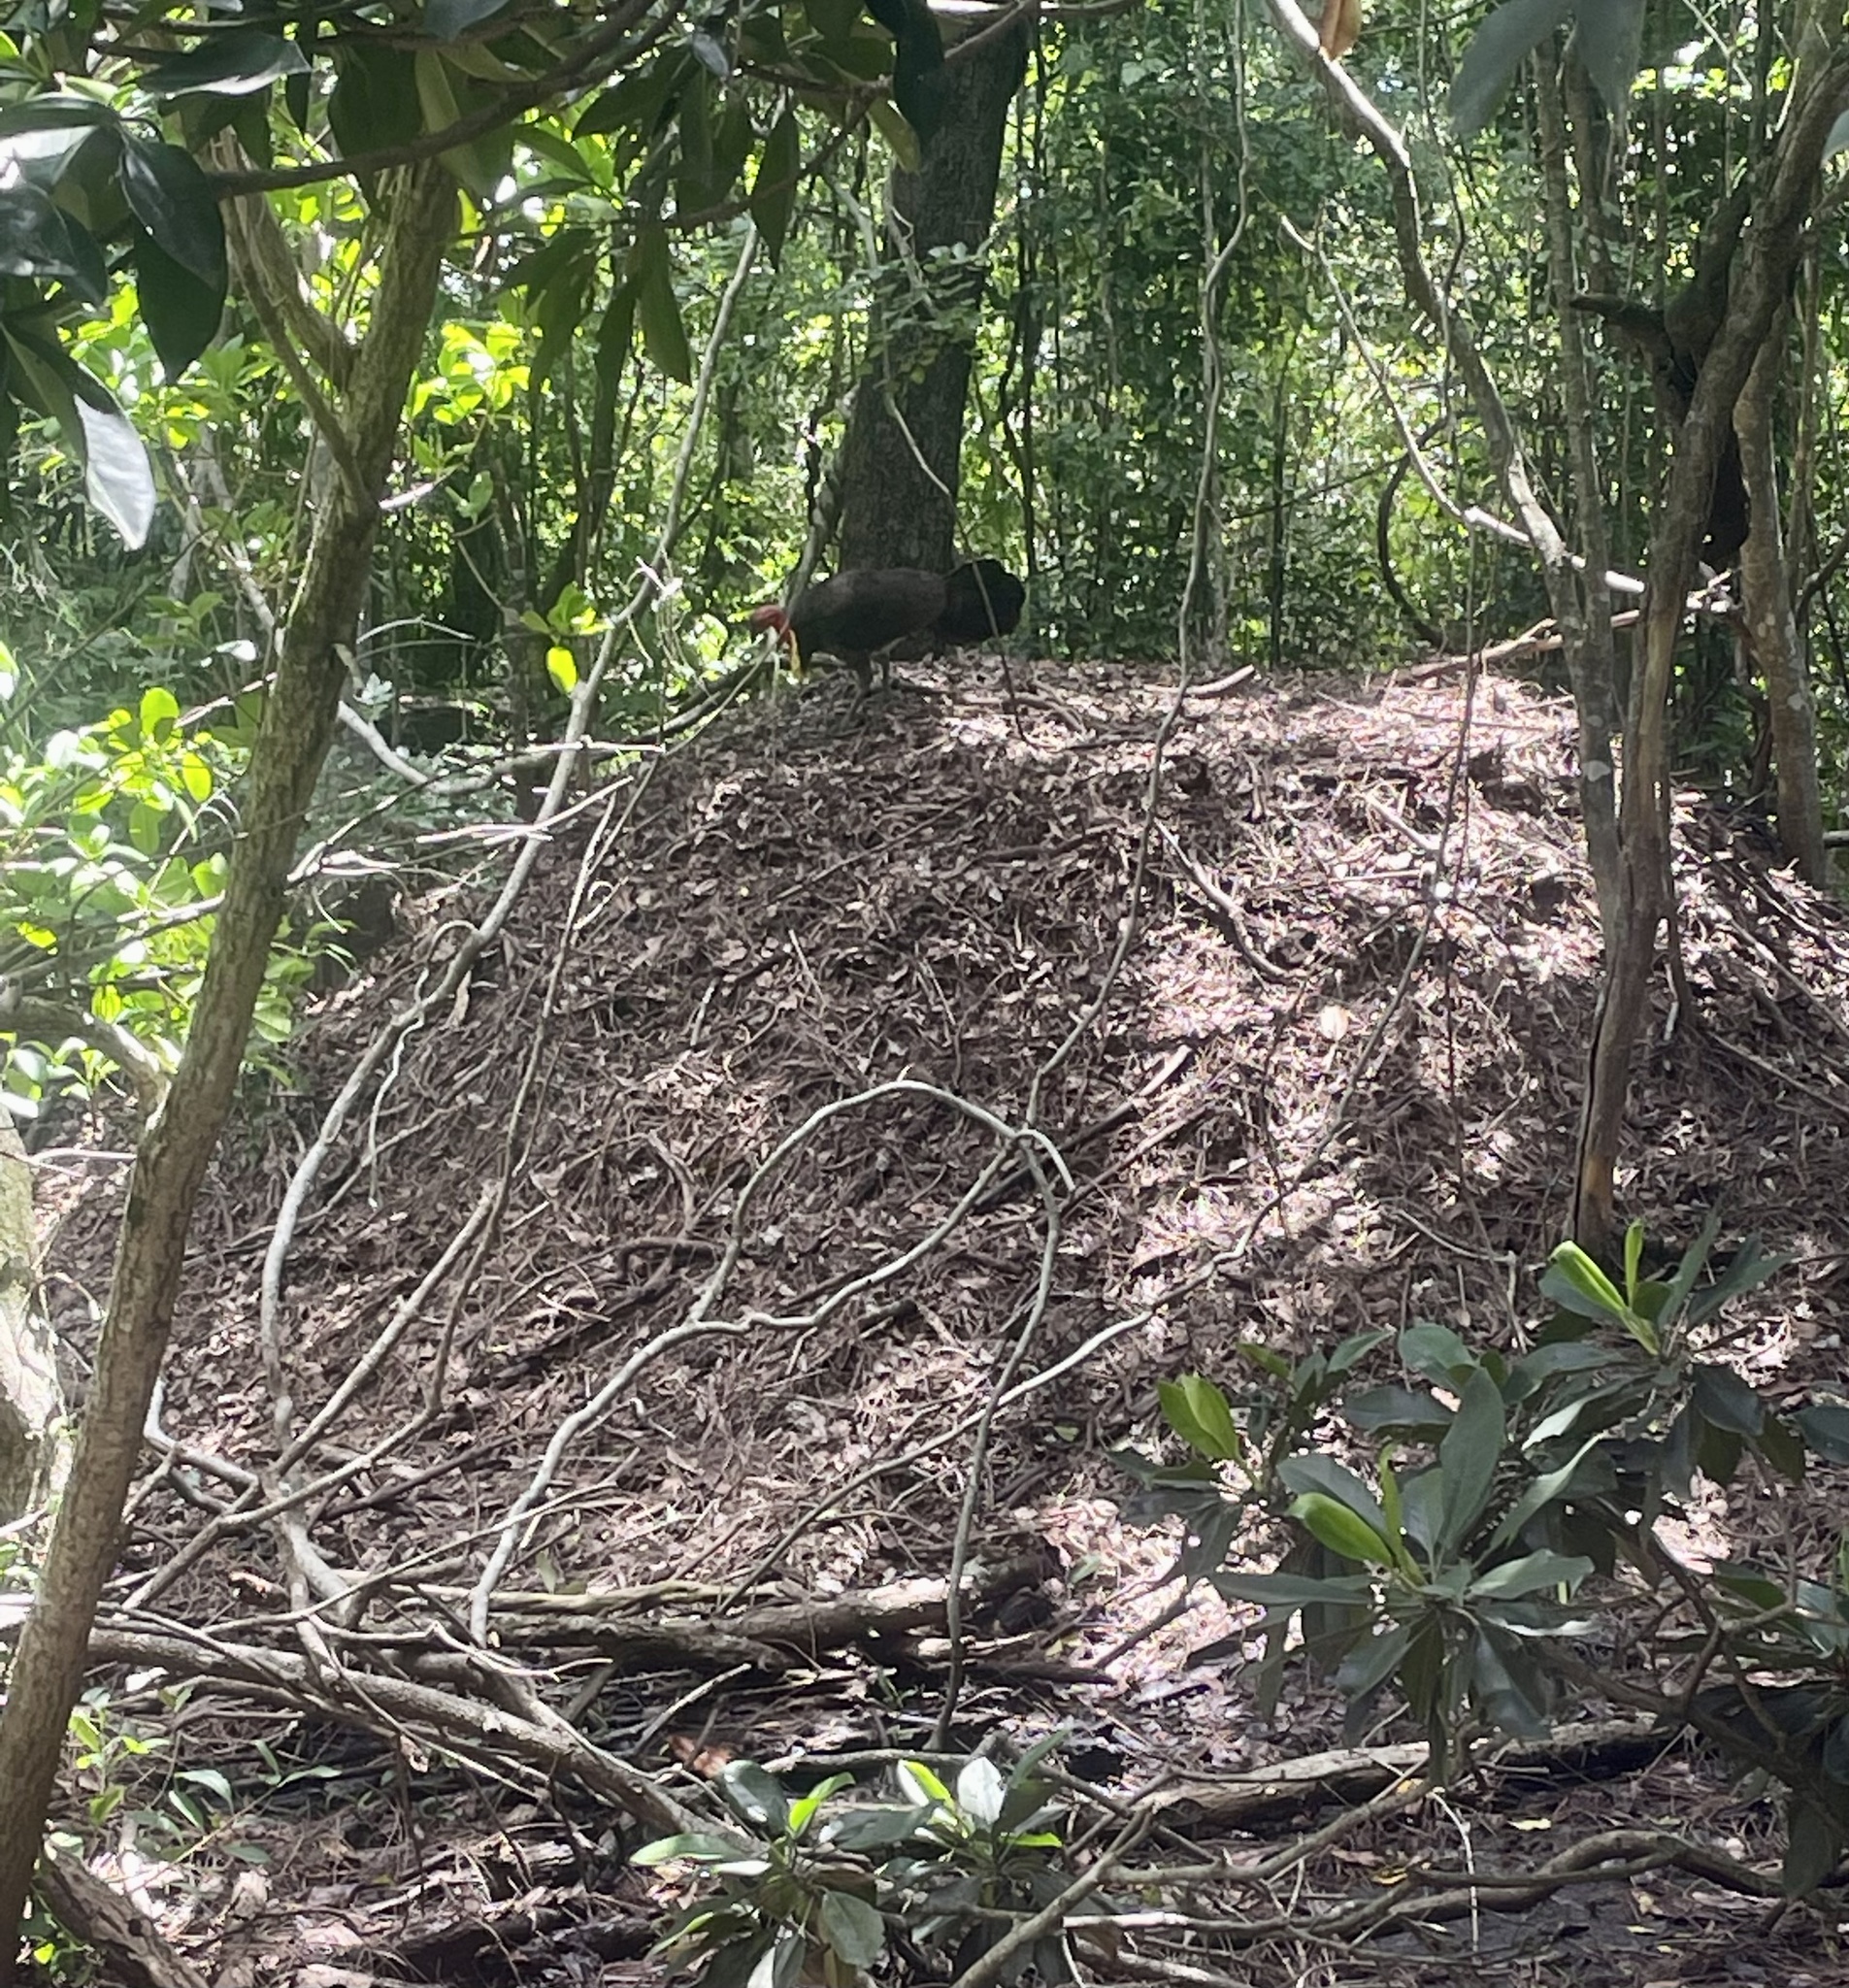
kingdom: Animalia
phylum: Chordata
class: Aves
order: Galliformes
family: Megapodiidae
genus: Alectura
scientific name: Alectura lathami
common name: Australian brushturkey
